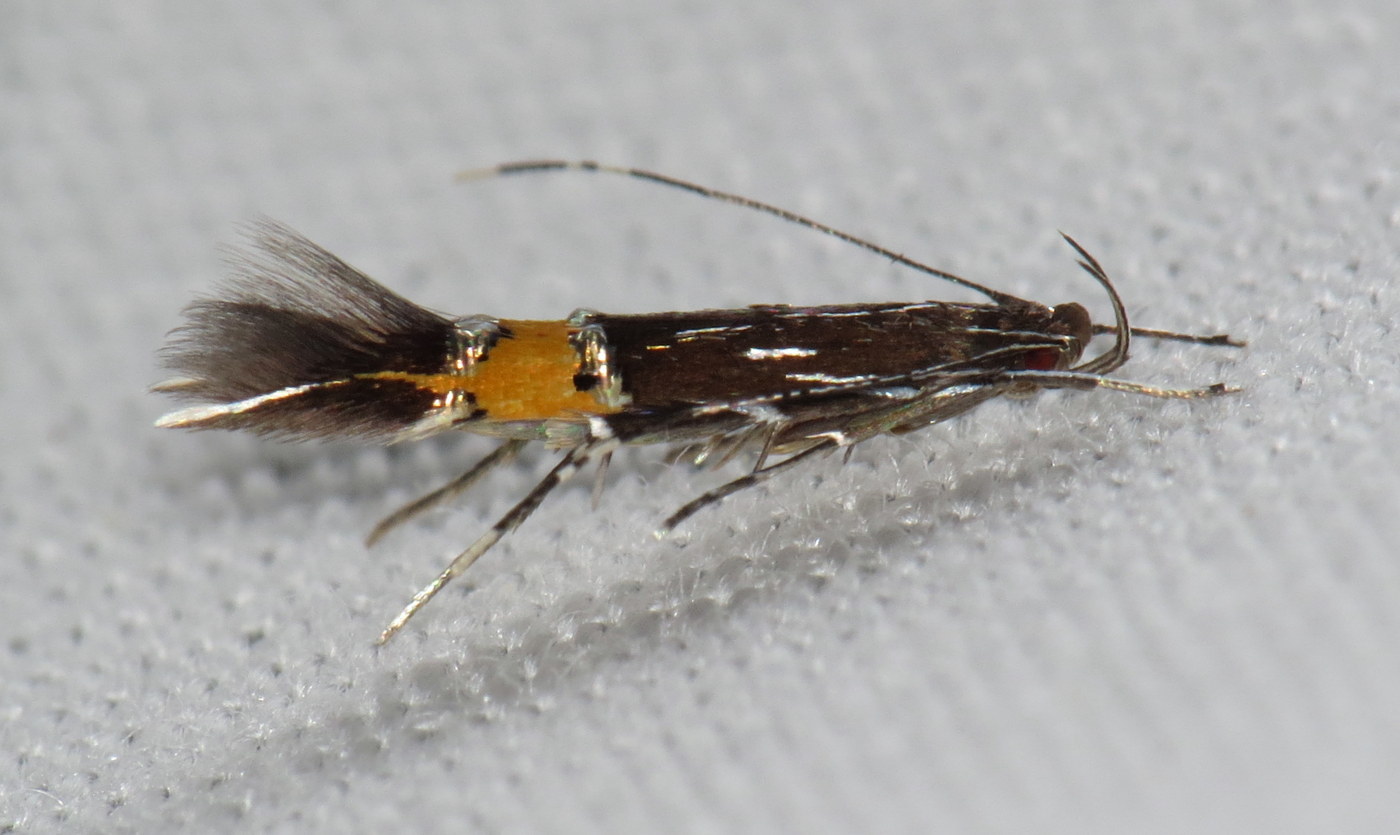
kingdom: Animalia
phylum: Arthropoda
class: Insecta
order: Lepidoptera
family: Cosmopterigidae
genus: Cosmopterix
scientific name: Cosmopterix clemensella
